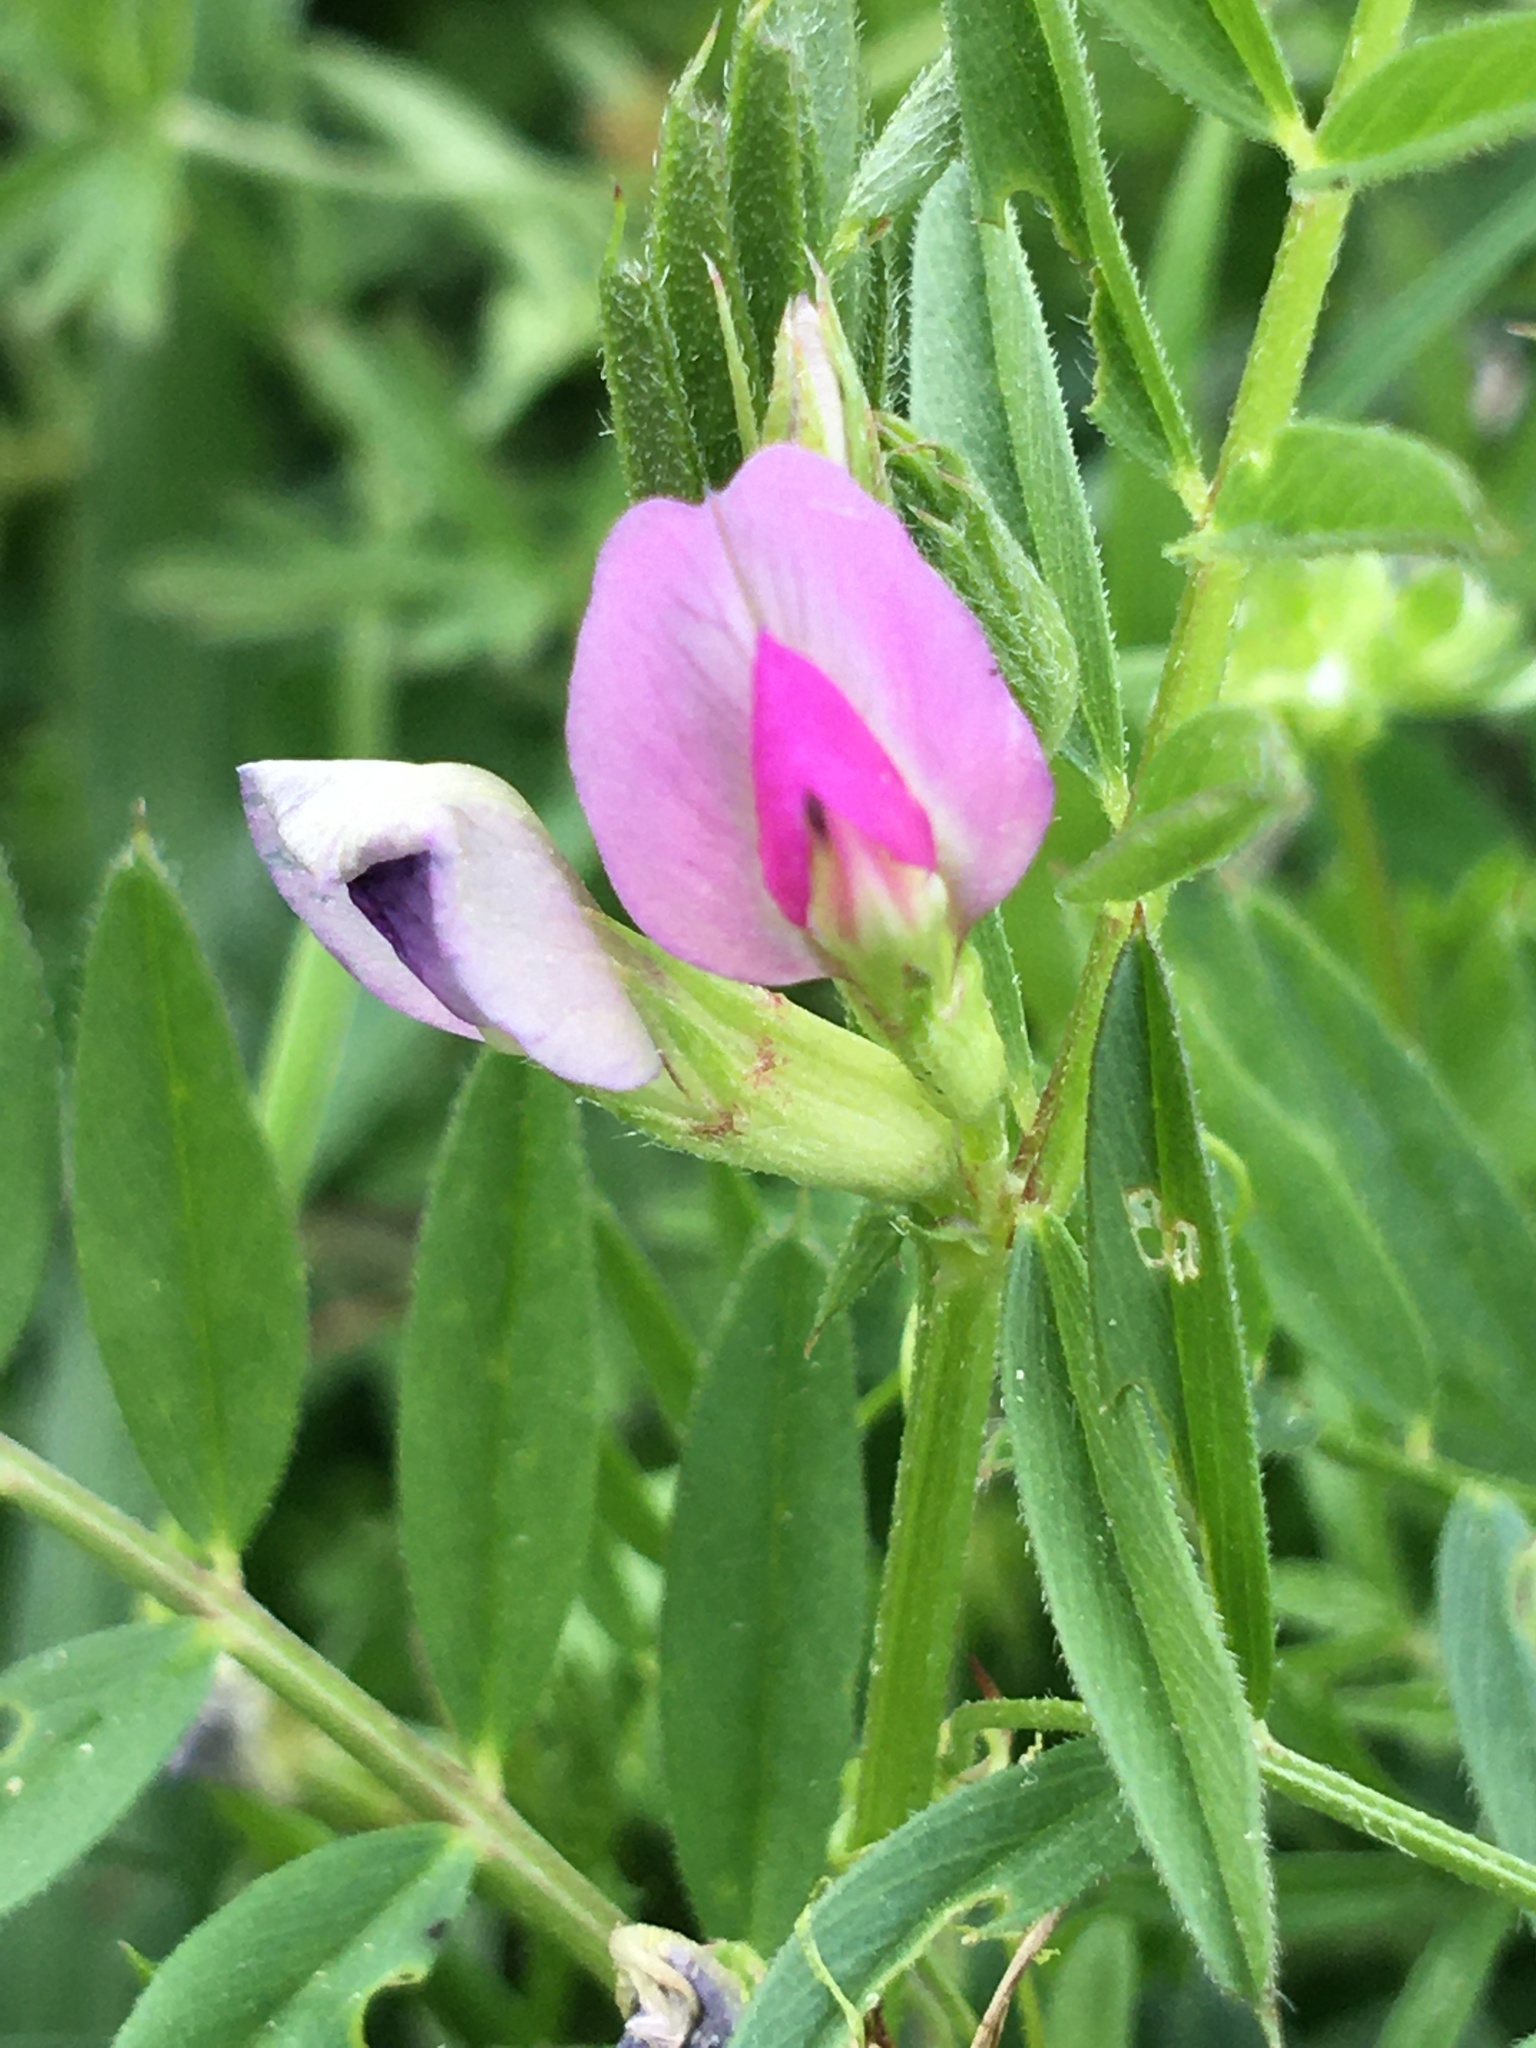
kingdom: Plantae
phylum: Tracheophyta
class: Magnoliopsida
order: Fabales
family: Fabaceae
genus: Vicia
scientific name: Vicia sativa
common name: Garden vetch
